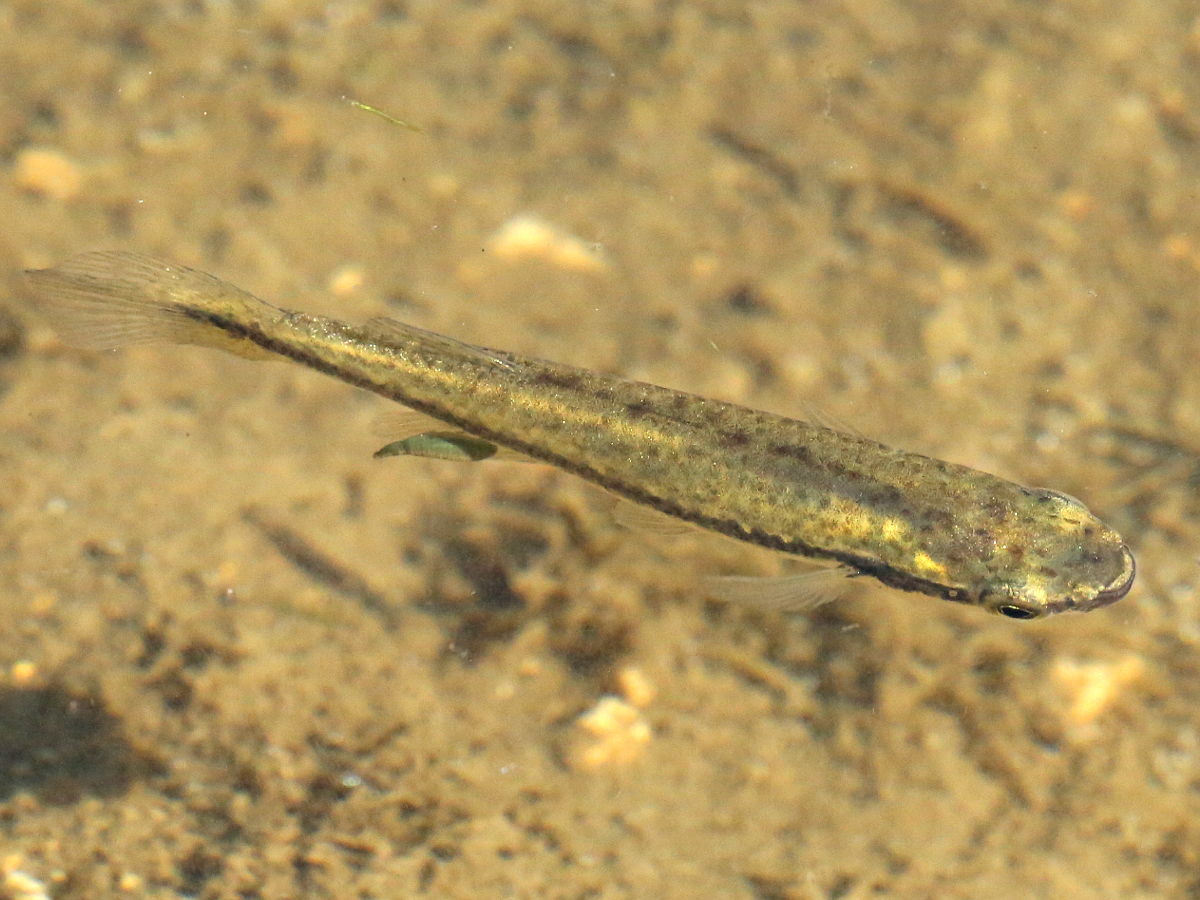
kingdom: Animalia
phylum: Chordata
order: Cyprinodontiformes
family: Fundulidae
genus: Fundulus
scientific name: Fundulus notatus
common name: Blackstripe topminnow
